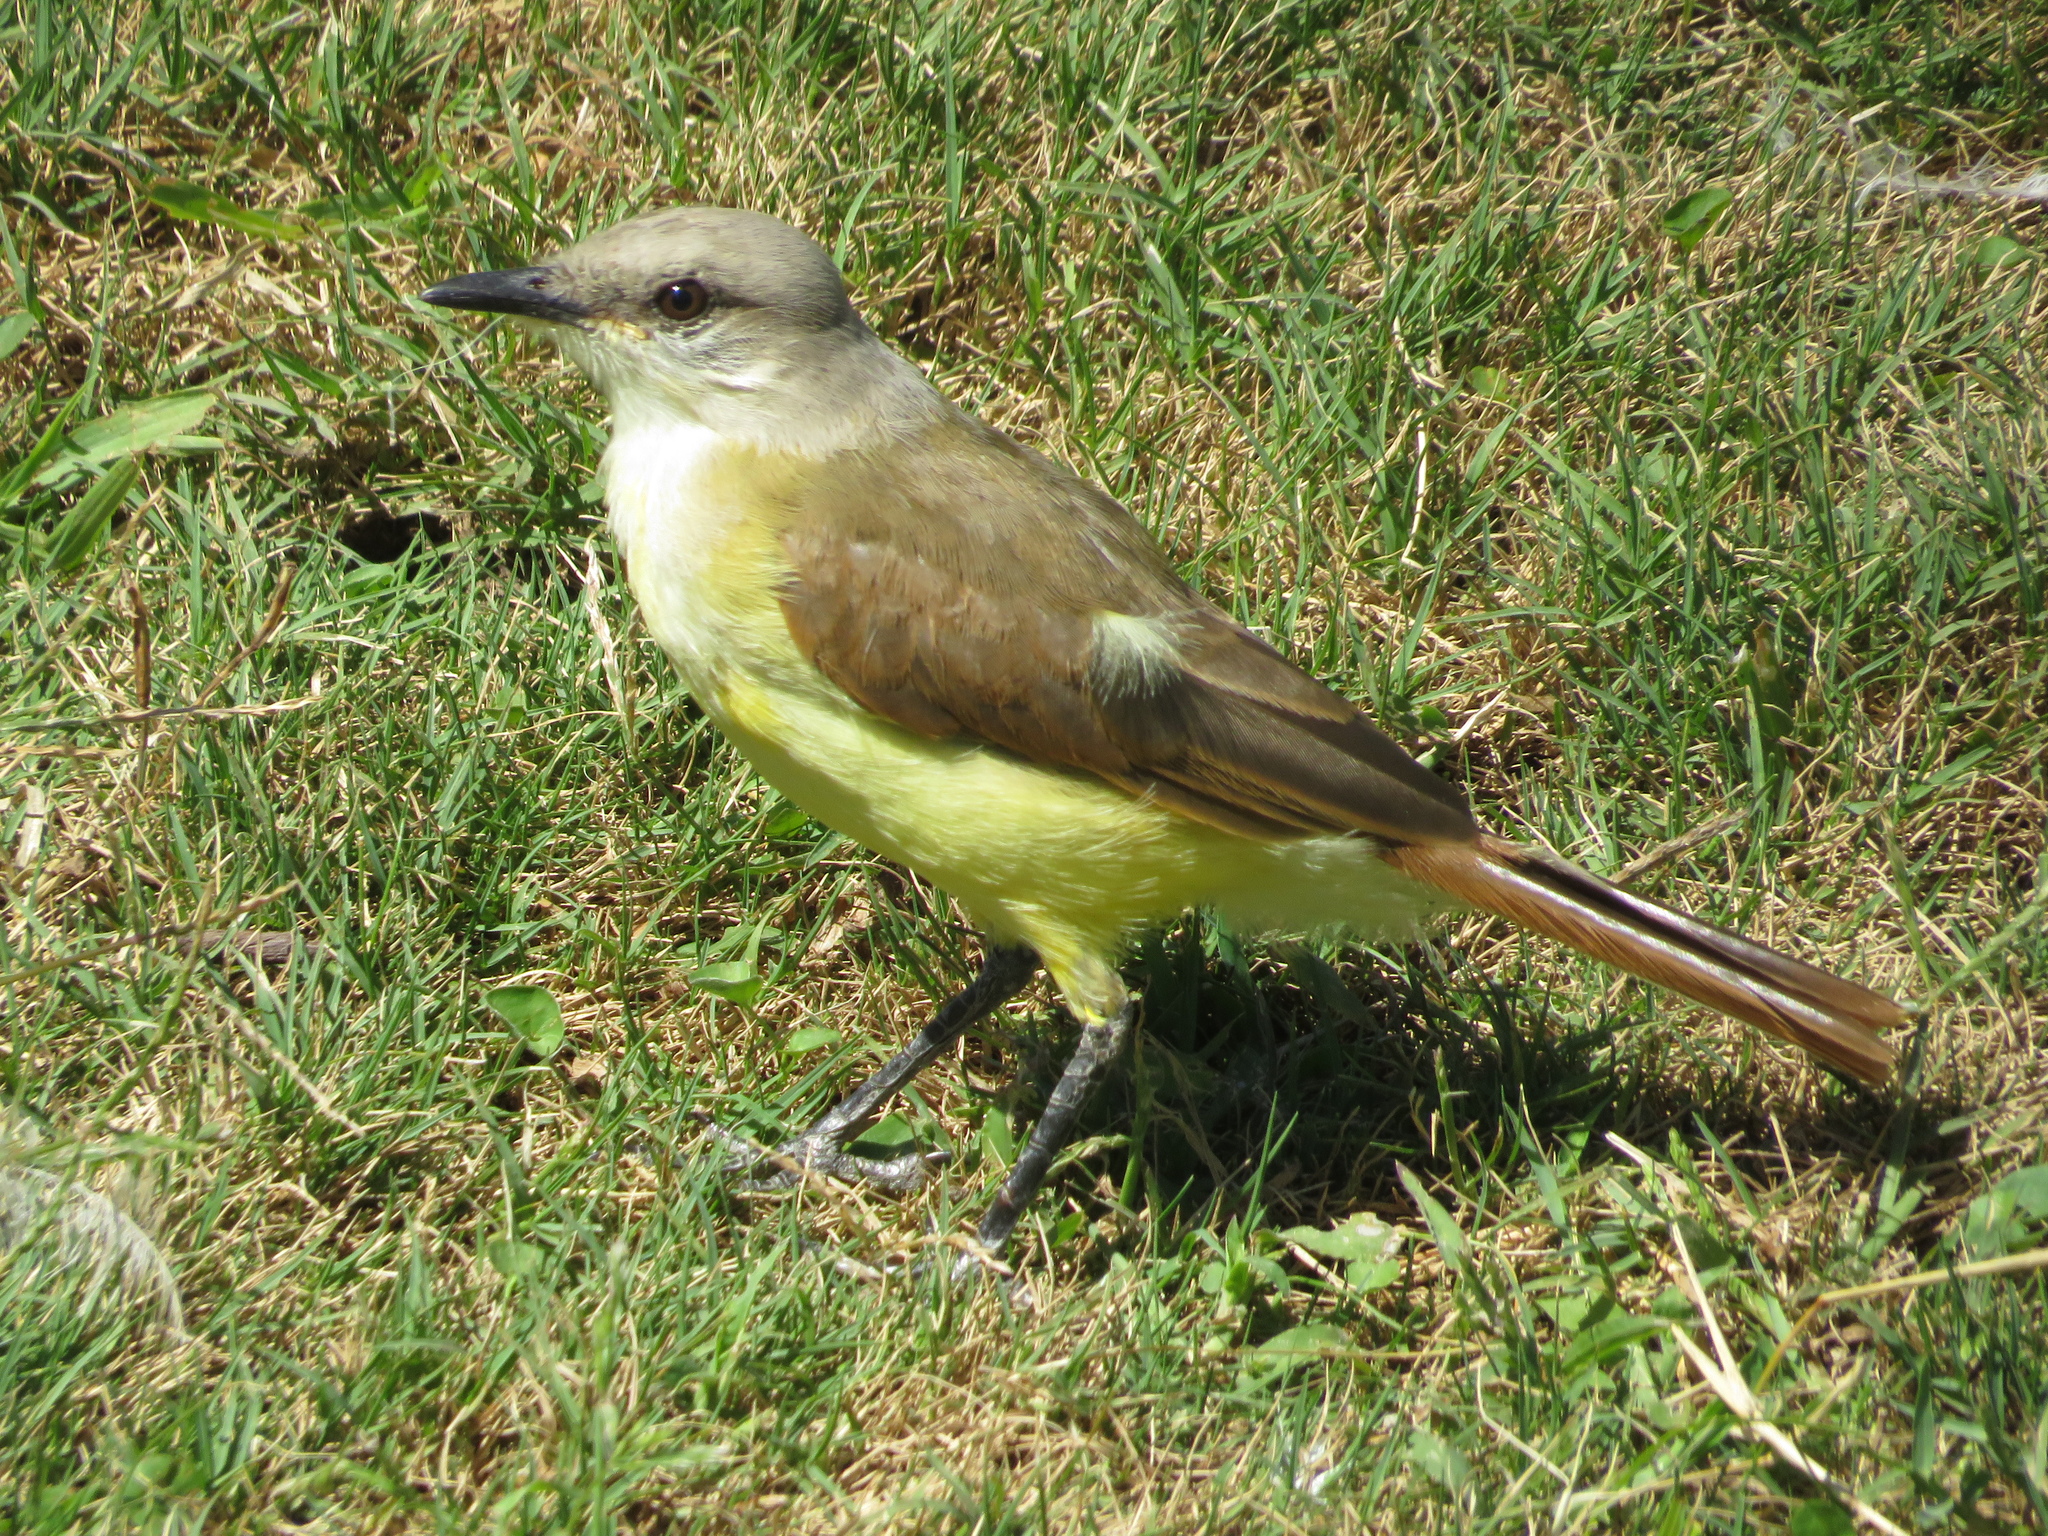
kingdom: Animalia
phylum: Chordata
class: Aves
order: Passeriformes
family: Tyrannidae
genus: Machetornis
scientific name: Machetornis rixosa
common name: Cattle tyrant
